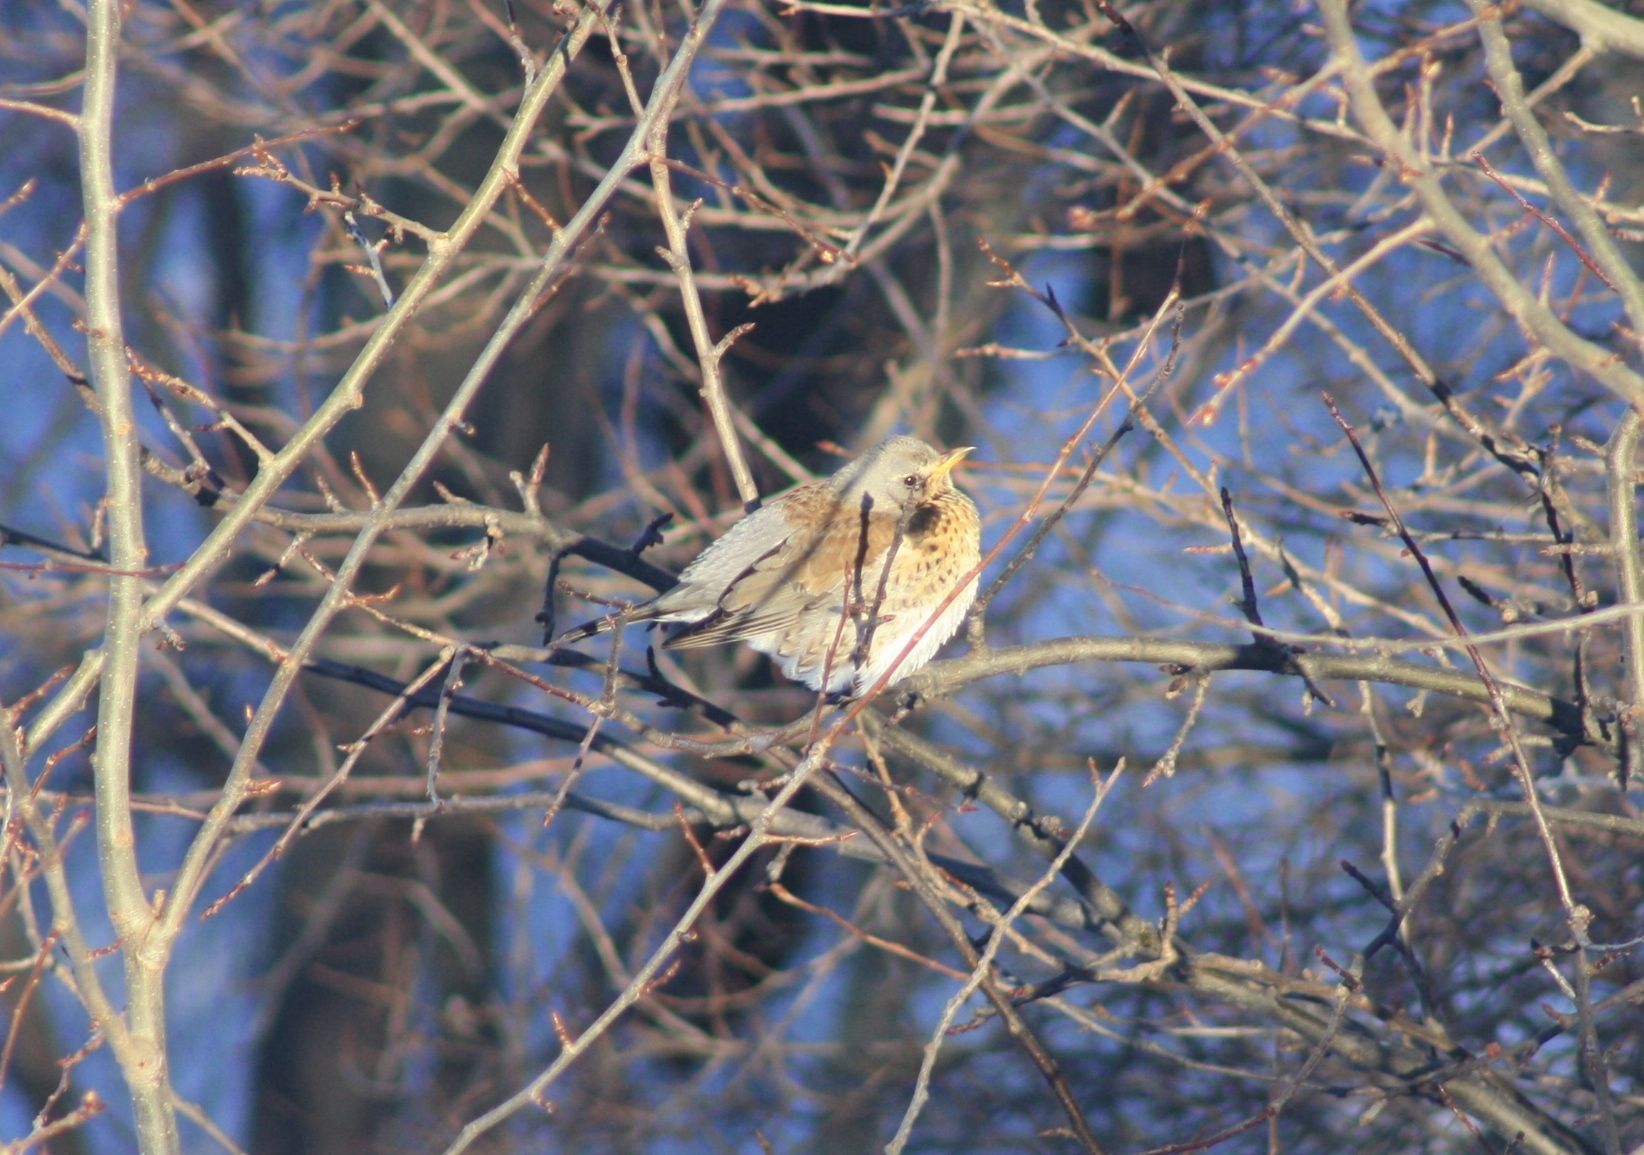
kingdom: Animalia
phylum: Chordata
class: Aves
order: Passeriformes
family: Turdidae
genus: Turdus
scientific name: Turdus pilaris
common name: Fieldfare
